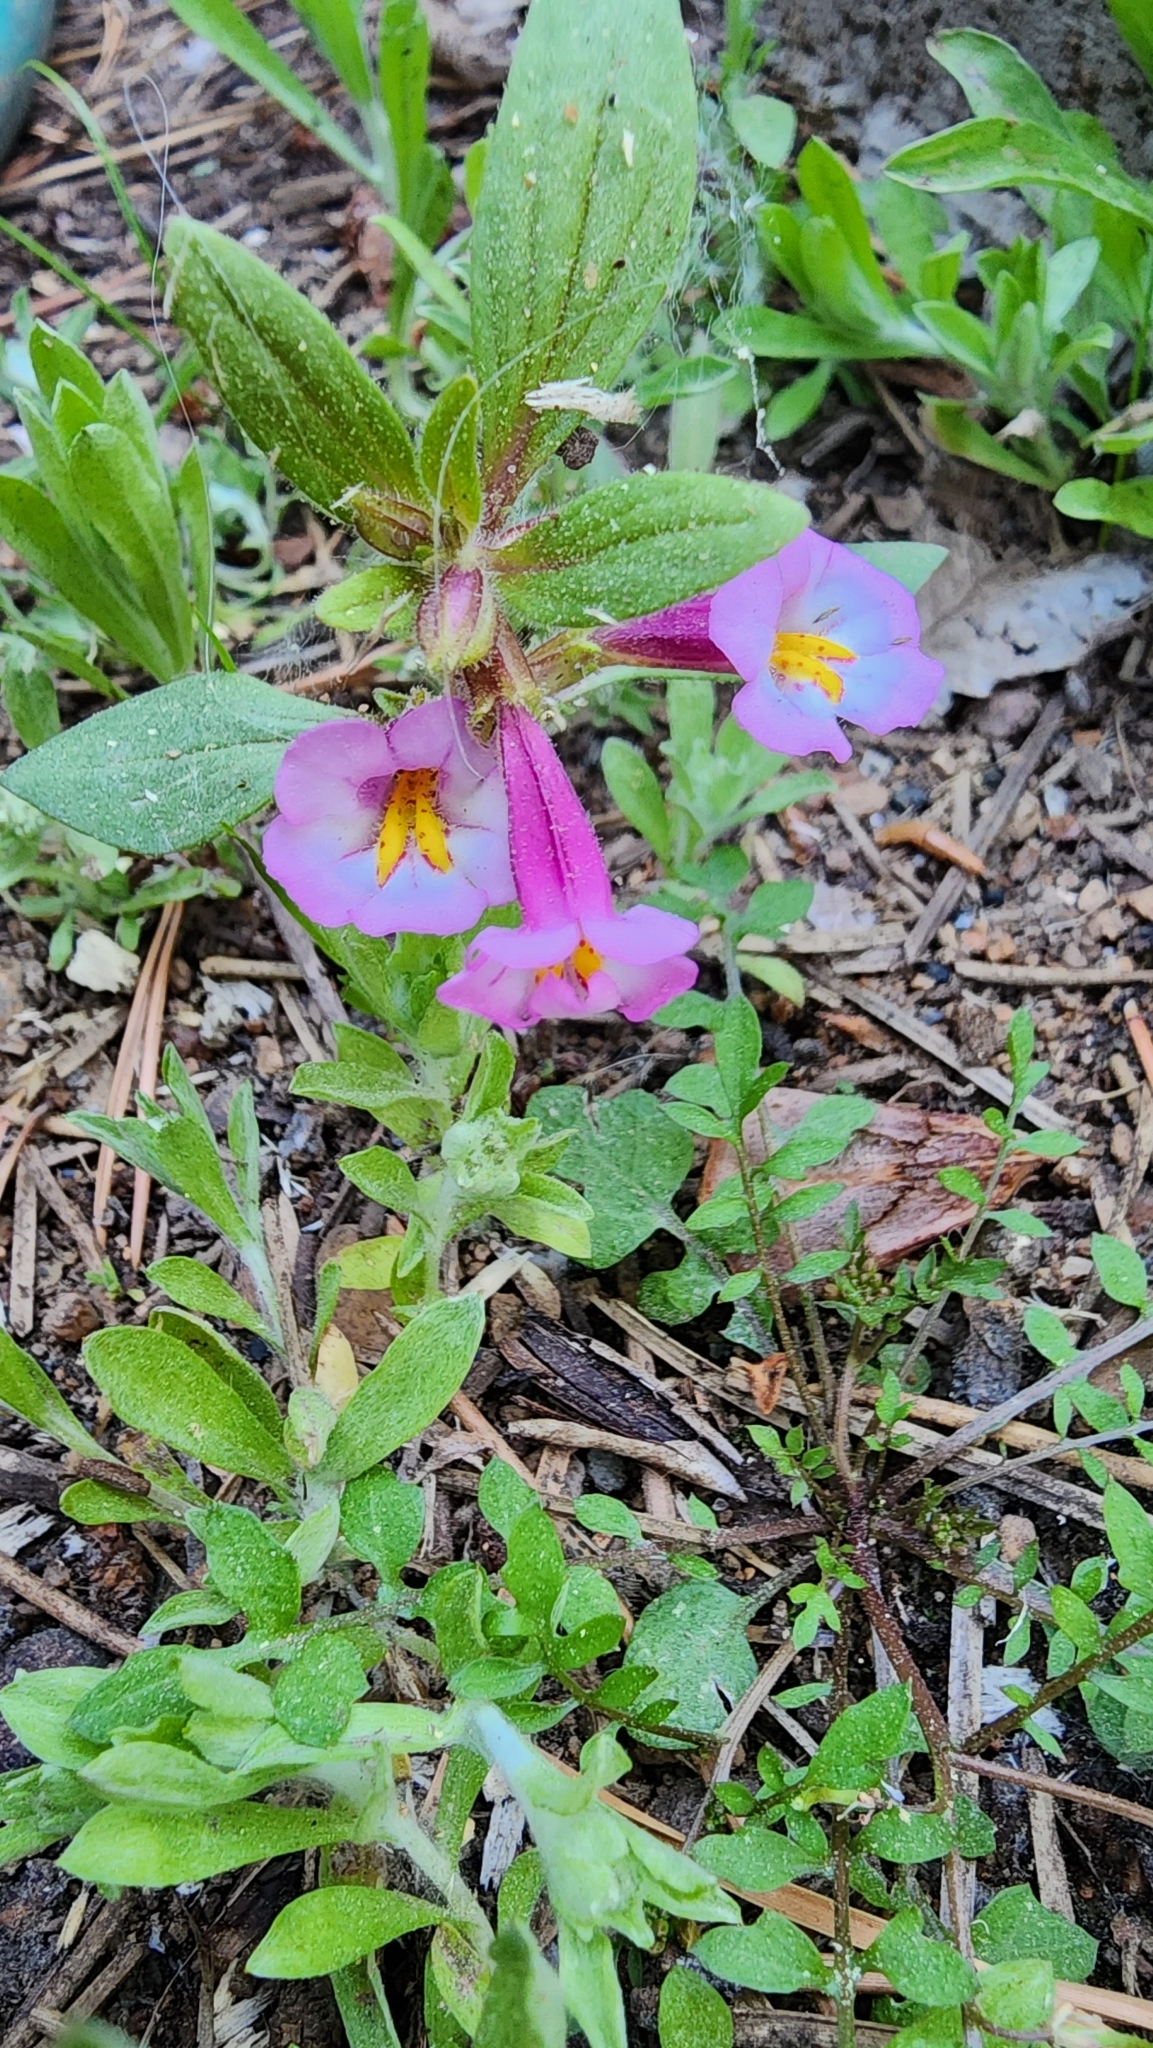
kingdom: Plantae
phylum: Tracheophyta
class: Magnoliopsida
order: Lamiales
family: Phrymaceae
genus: Diplacus
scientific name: Diplacus torreyi
